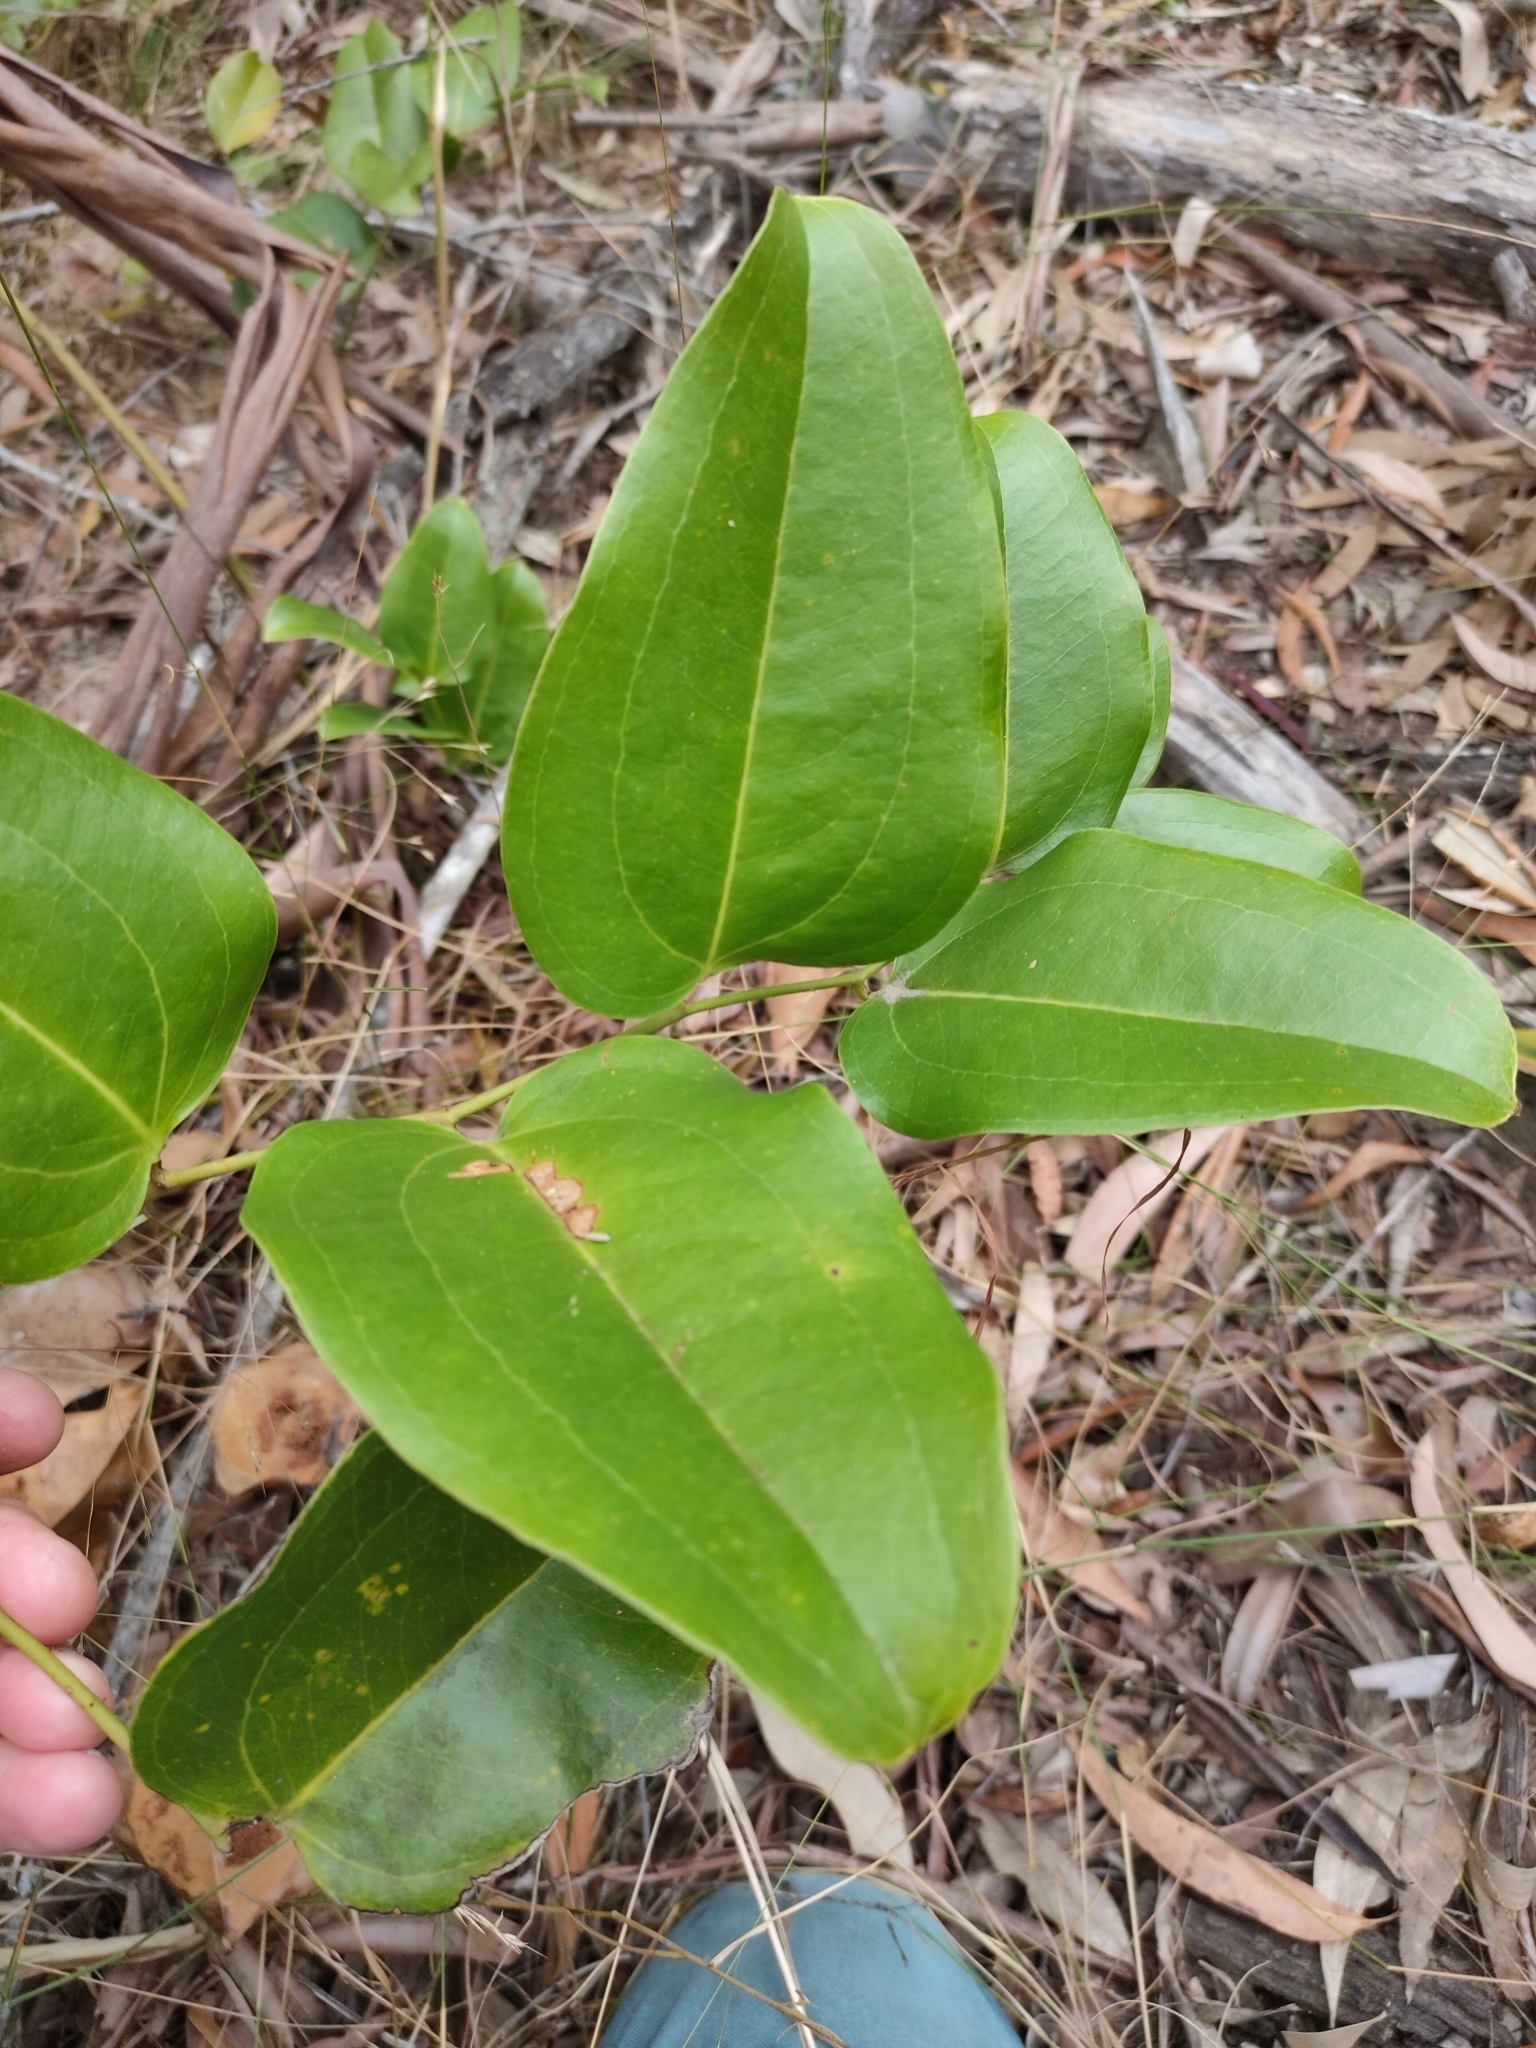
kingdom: Plantae
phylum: Tracheophyta
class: Liliopsida
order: Liliales
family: Smilacaceae
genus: Smilax
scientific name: Smilax australis
